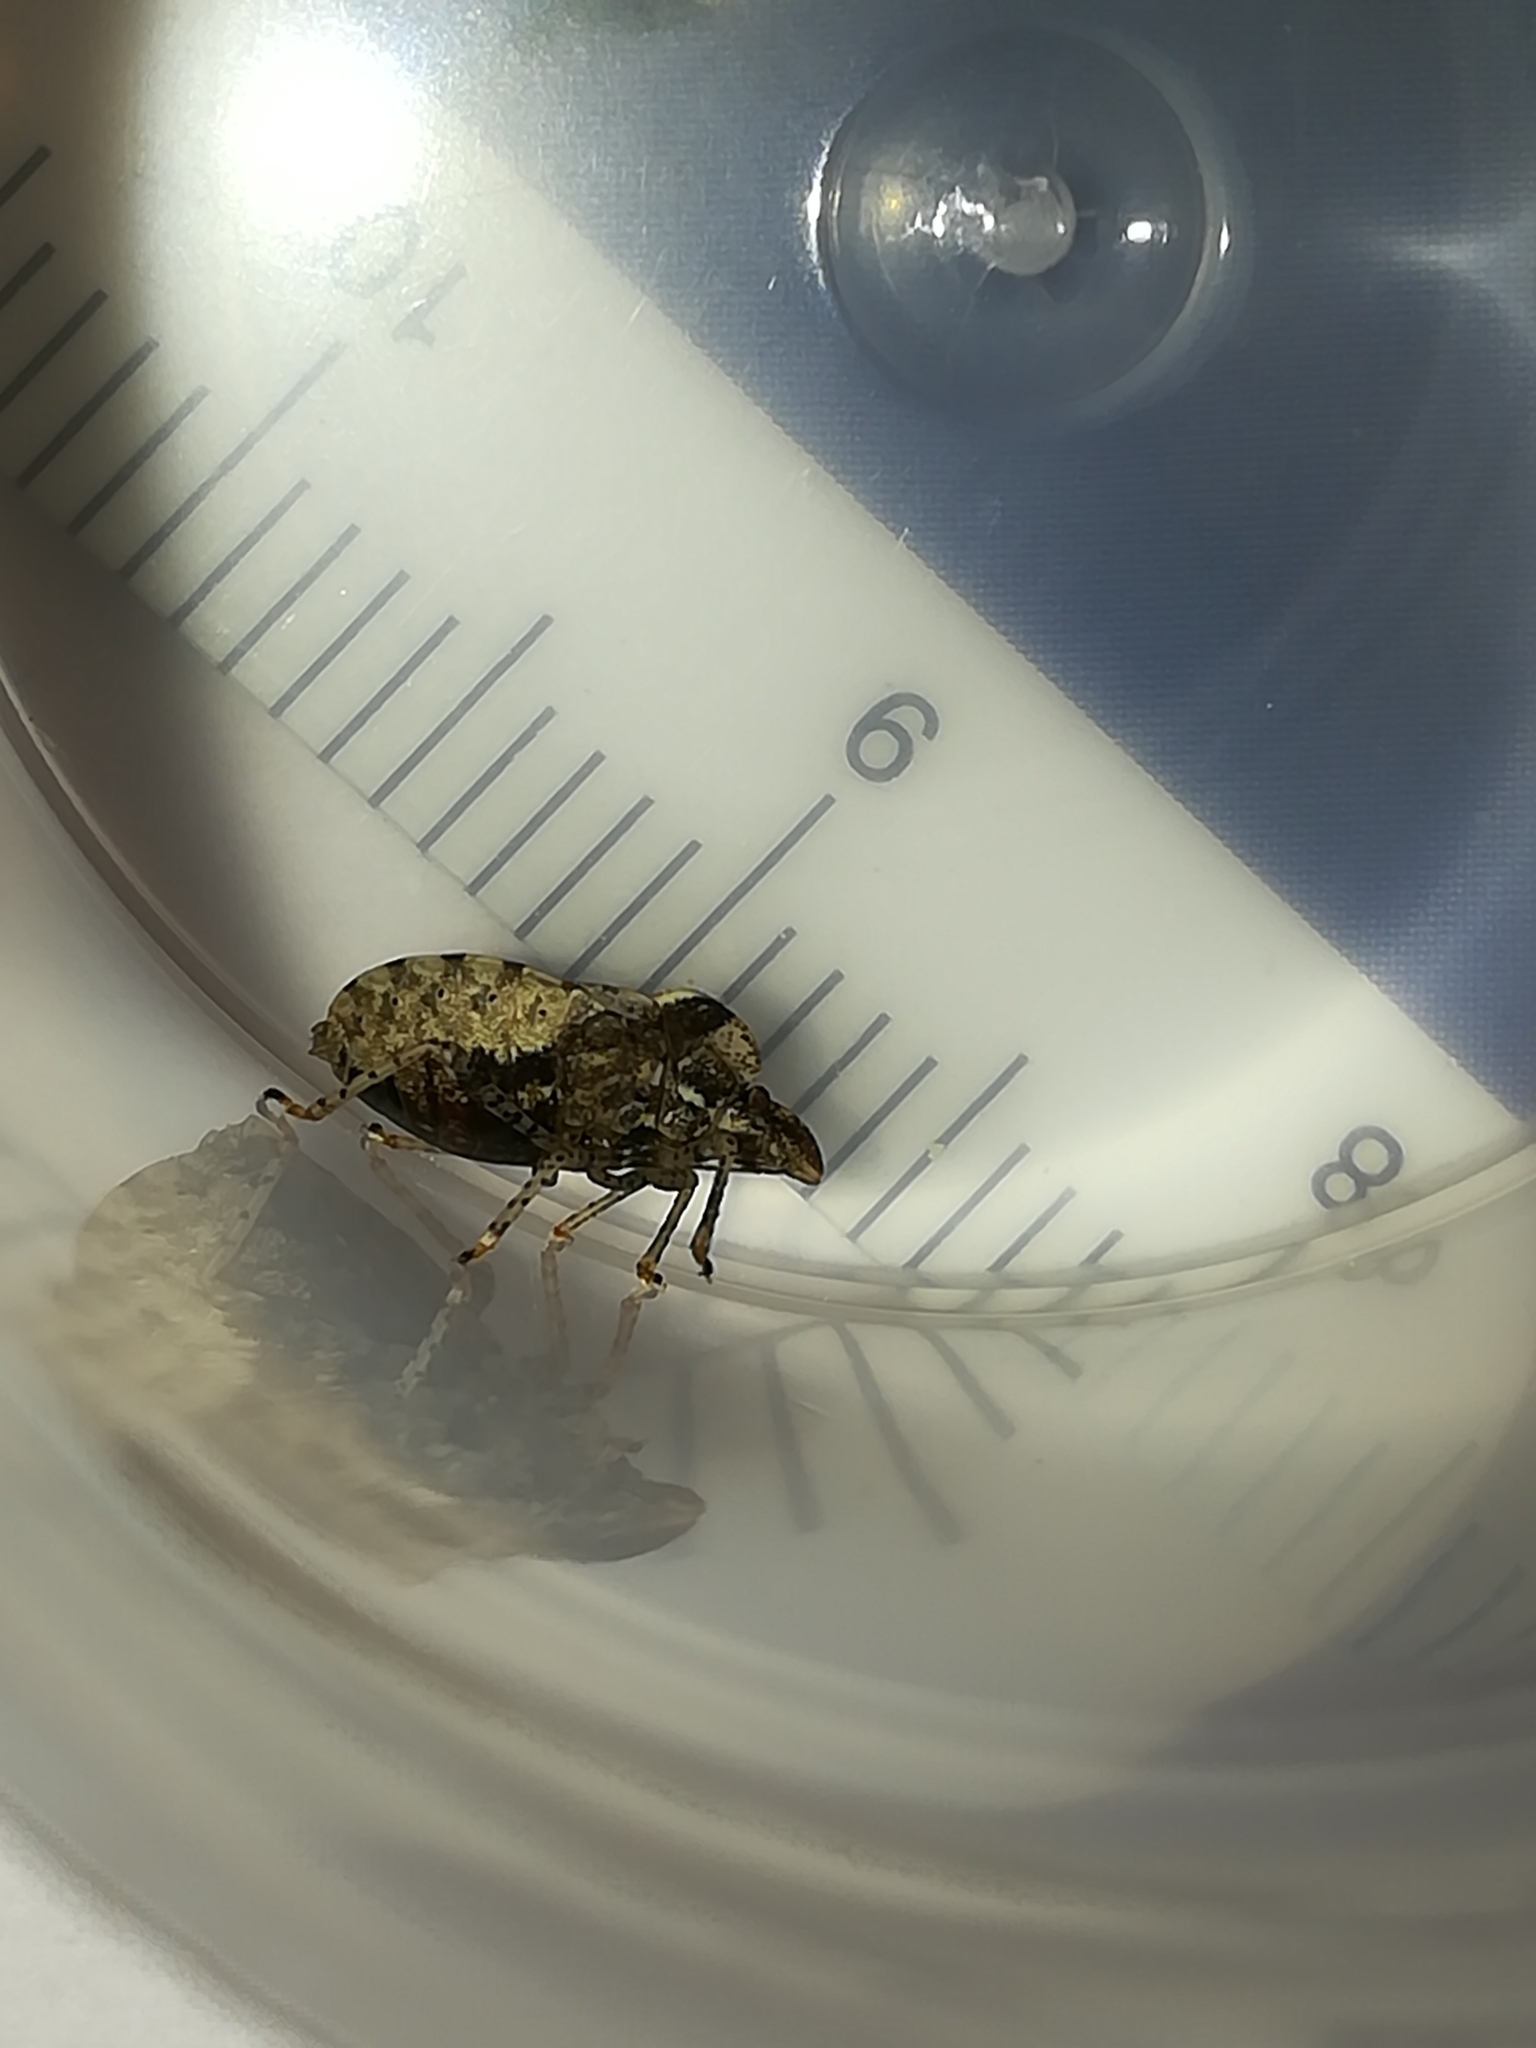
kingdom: Animalia
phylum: Arthropoda
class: Insecta
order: Hemiptera
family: Pentatomidae
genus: Dyroderes
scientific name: Dyroderes umbraculatus
